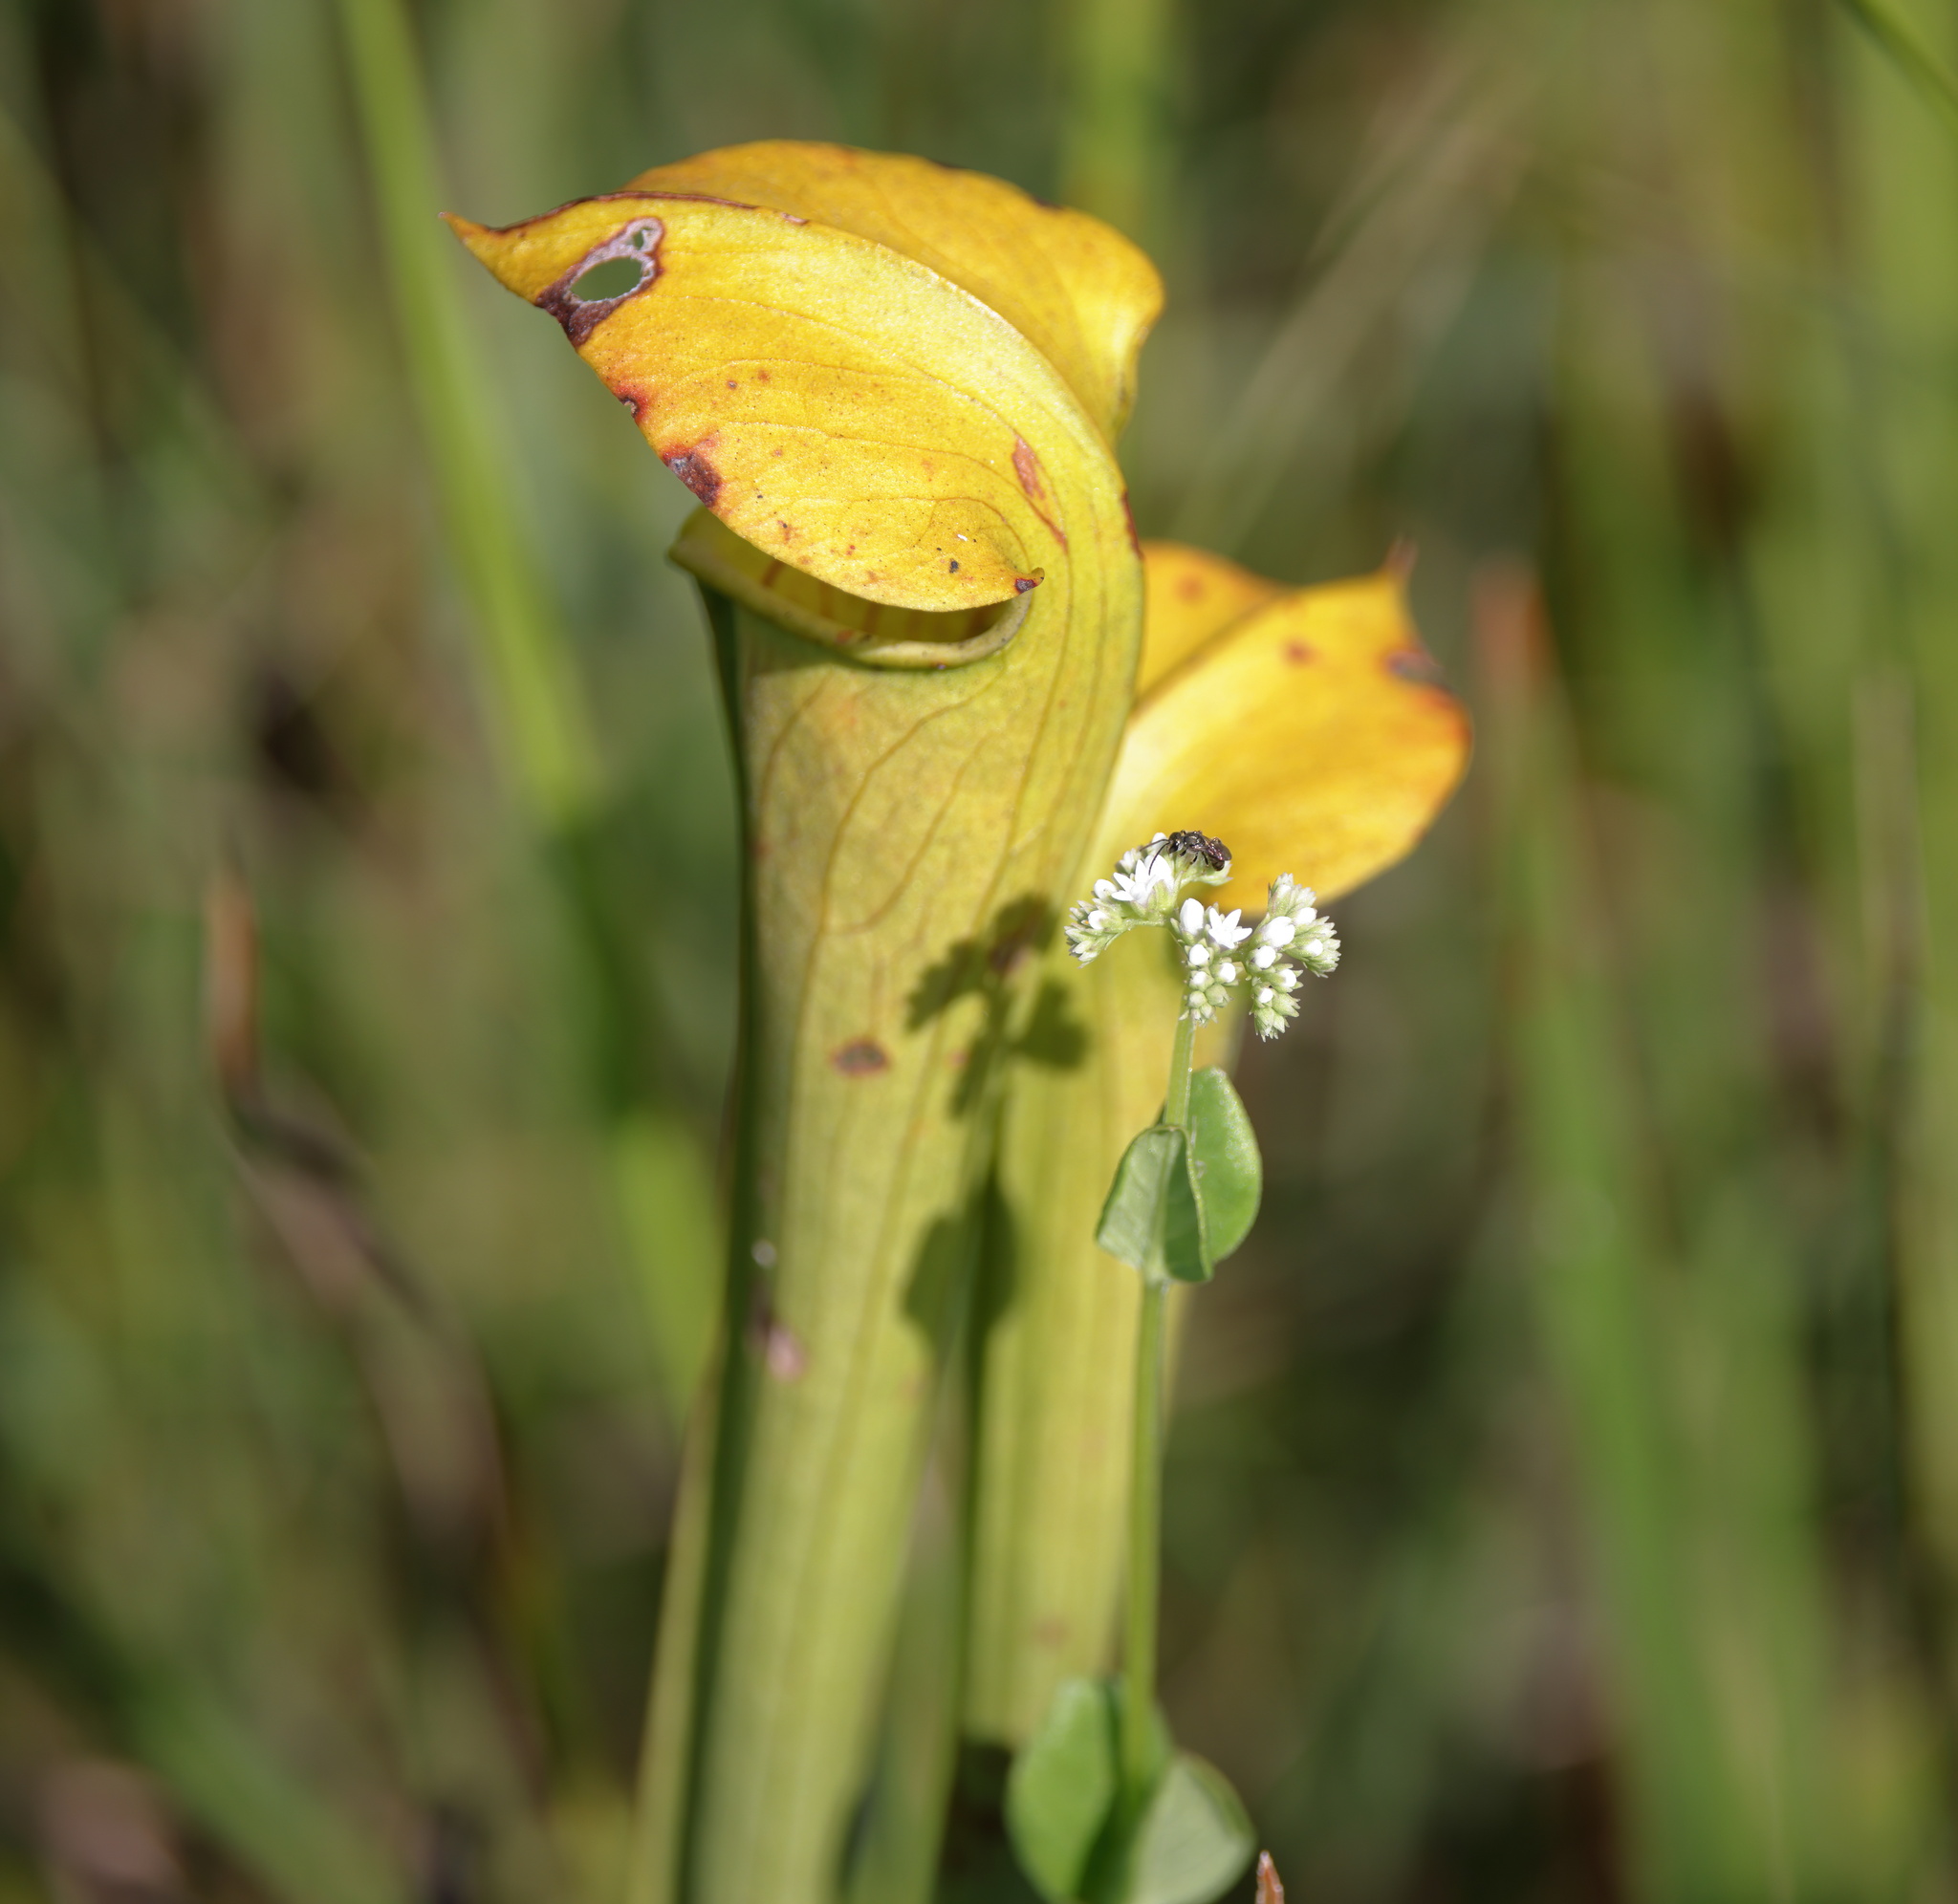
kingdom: Plantae
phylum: Tracheophyta
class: Magnoliopsida
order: Gentianales
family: Loganiaceae
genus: Mitreola
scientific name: Mitreola sessilifolia
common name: Swamp hornpod
